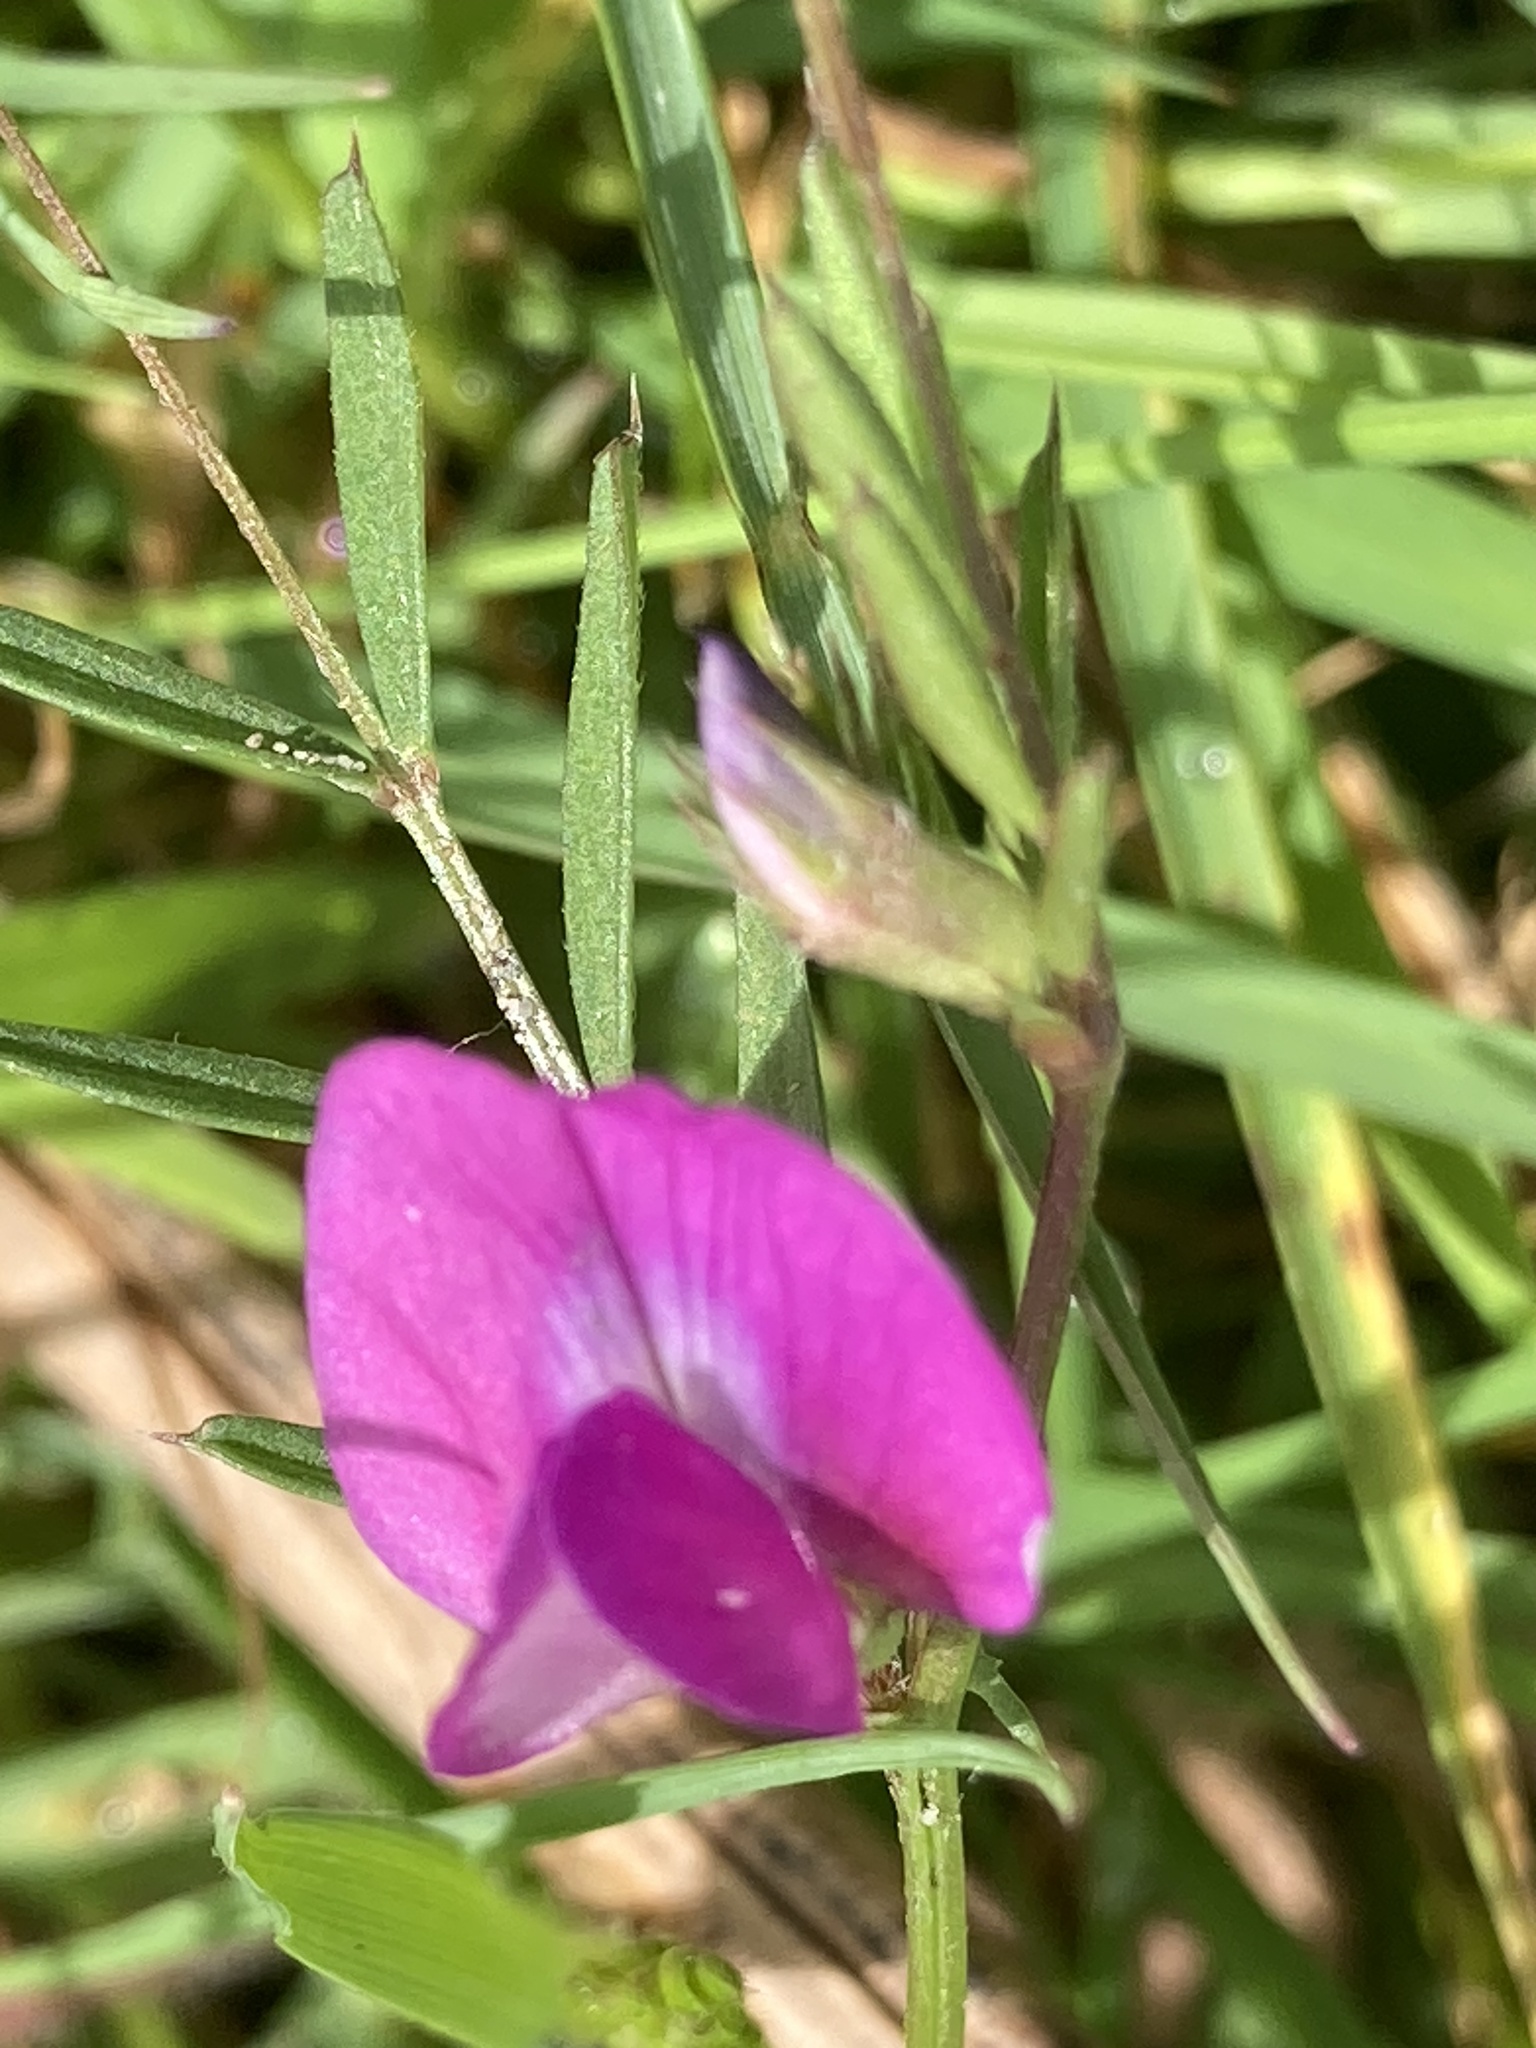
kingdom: Plantae
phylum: Tracheophyta
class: Magnoliopsida
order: Fabales
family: Fabaceae
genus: Vicia
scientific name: Vicia sativa
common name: Garden vetch
